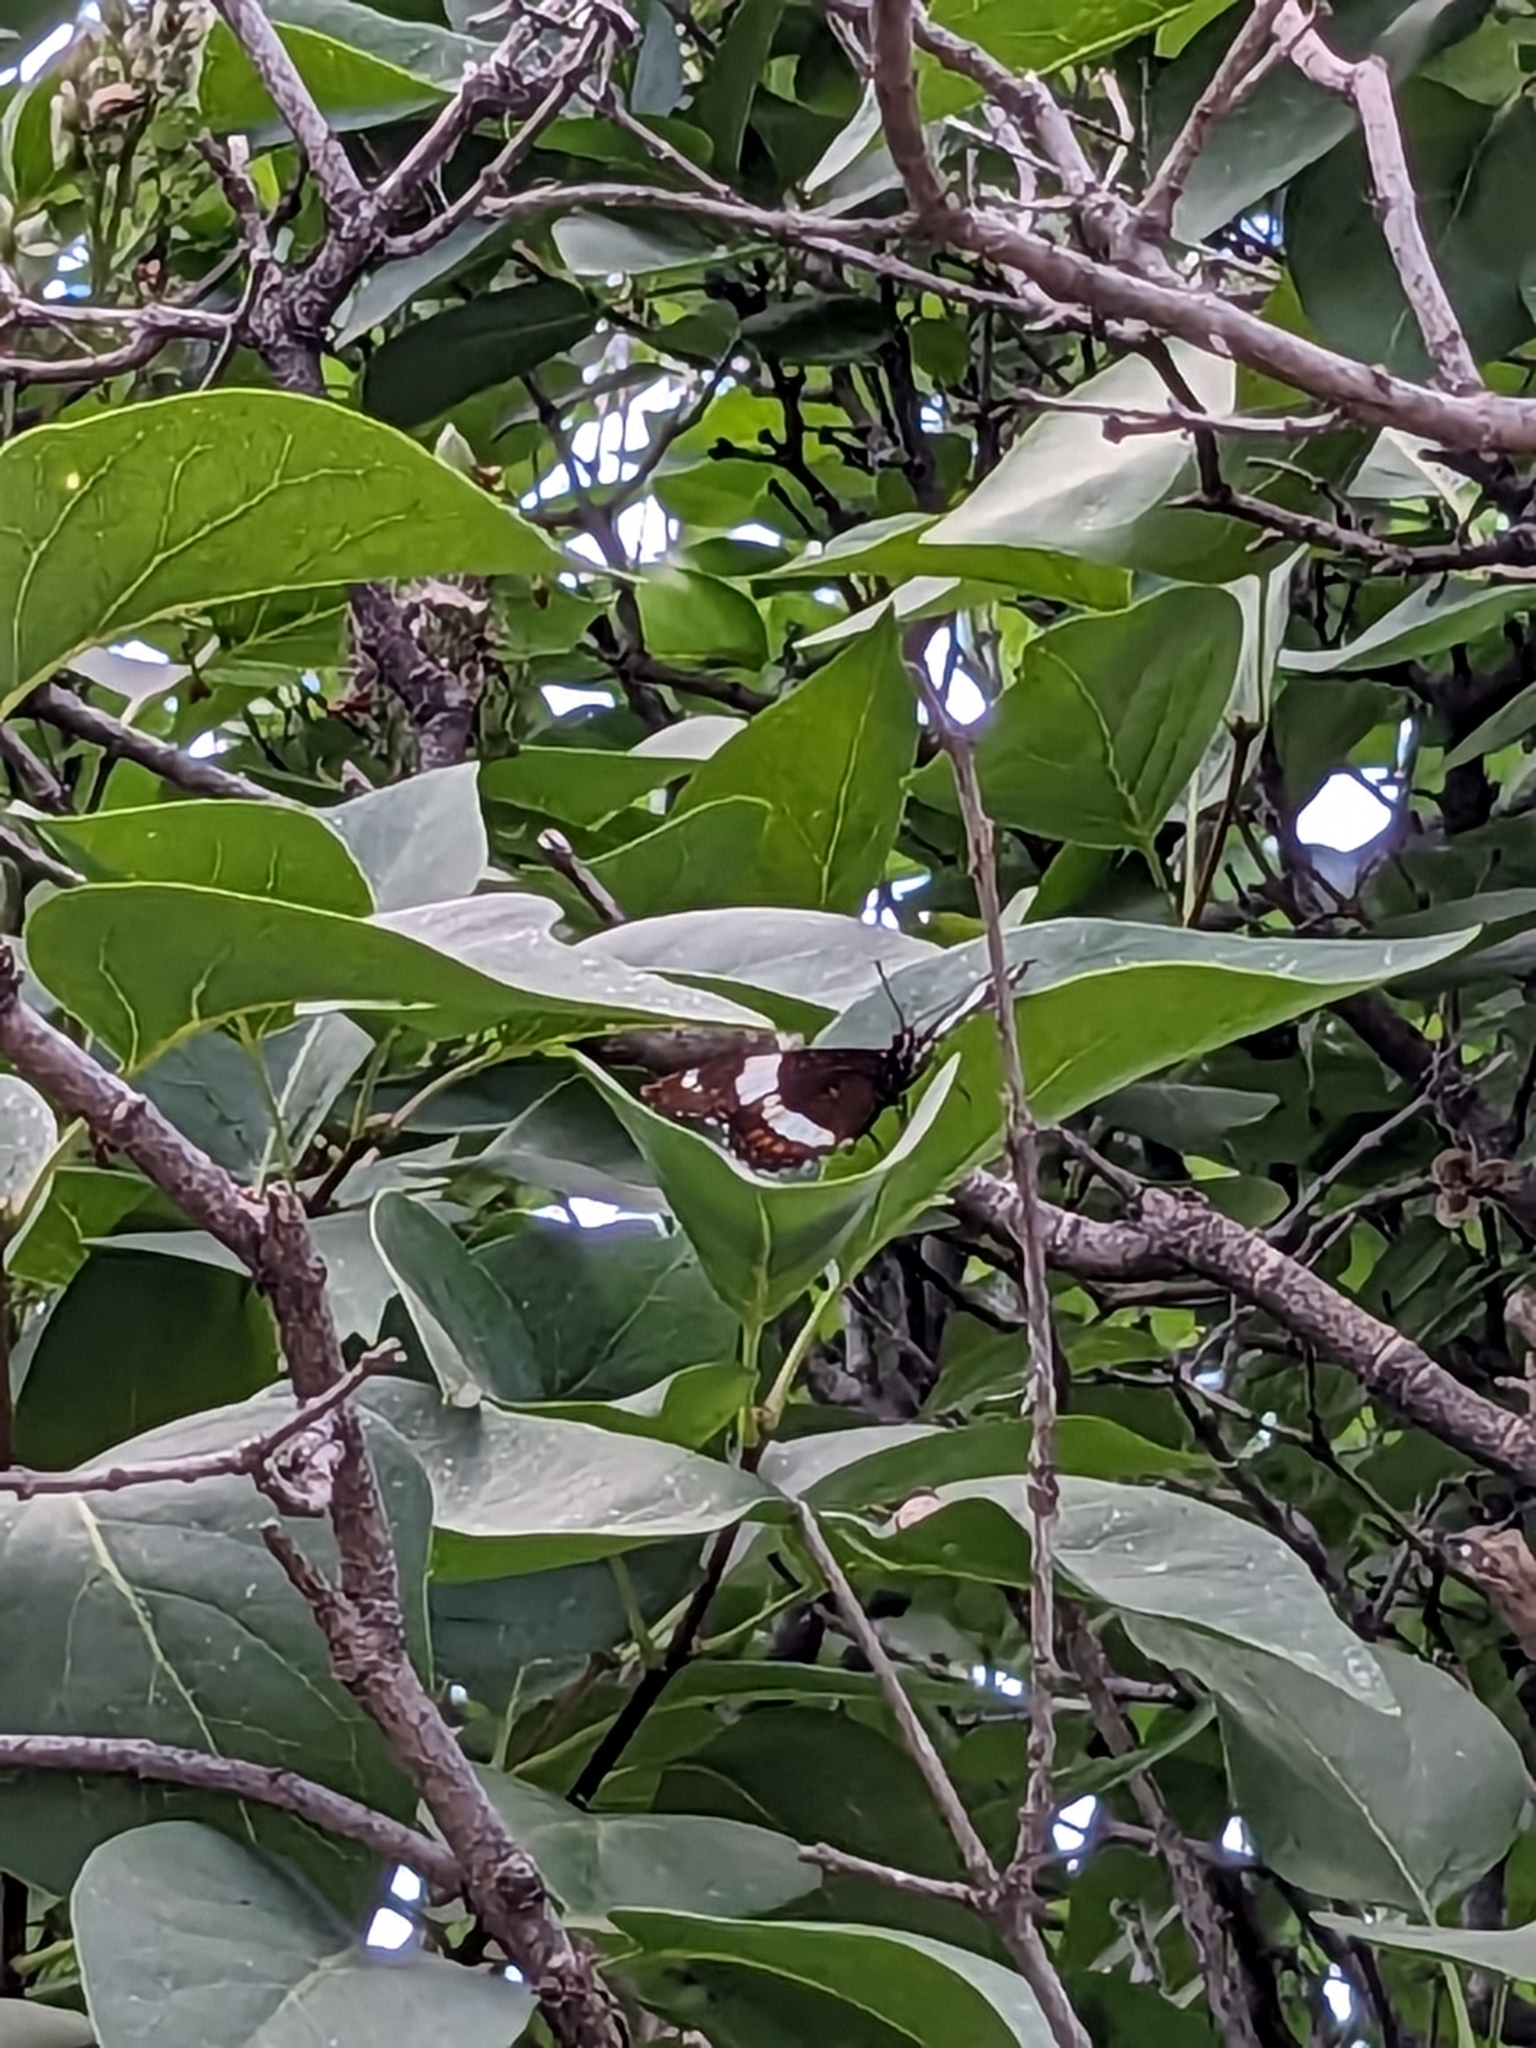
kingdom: Animalia
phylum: Arthropoda
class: Insecta
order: Lepidoptera
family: Nymphalidae
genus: Limenitis
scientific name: Limenitis arthemis
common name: Red-spotted admiral
